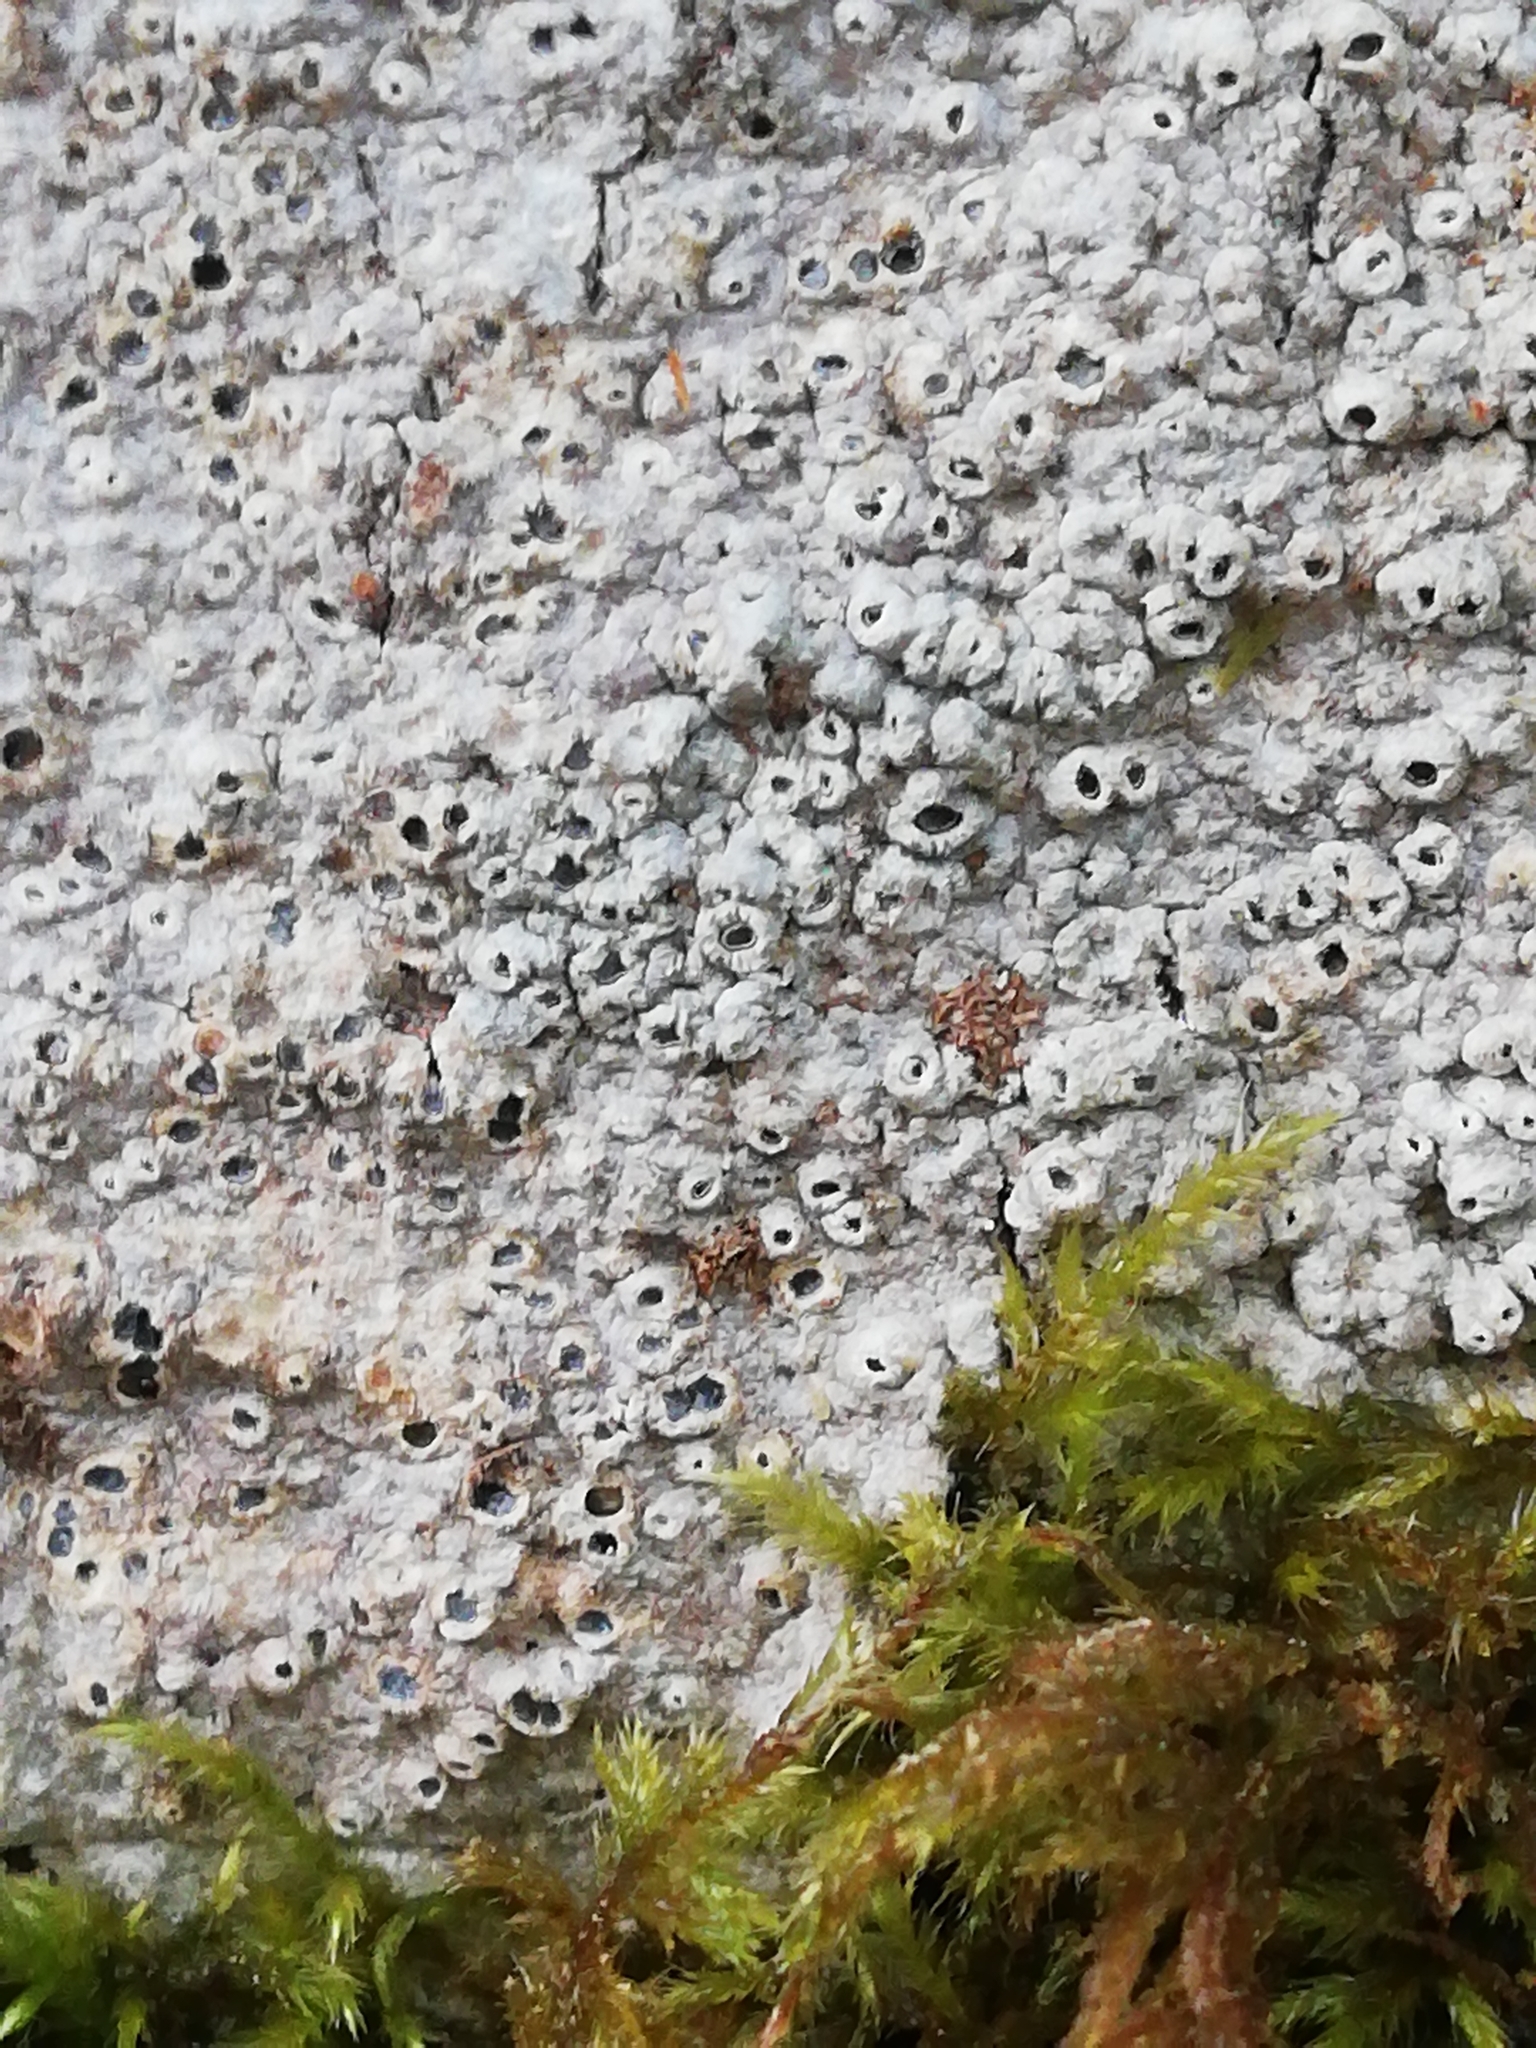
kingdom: Fungi
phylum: Ascomycota
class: Lecanoromycetes
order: Ostropales
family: Graphidaceae
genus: Thelotrema
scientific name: Thelotrema lepadinum
